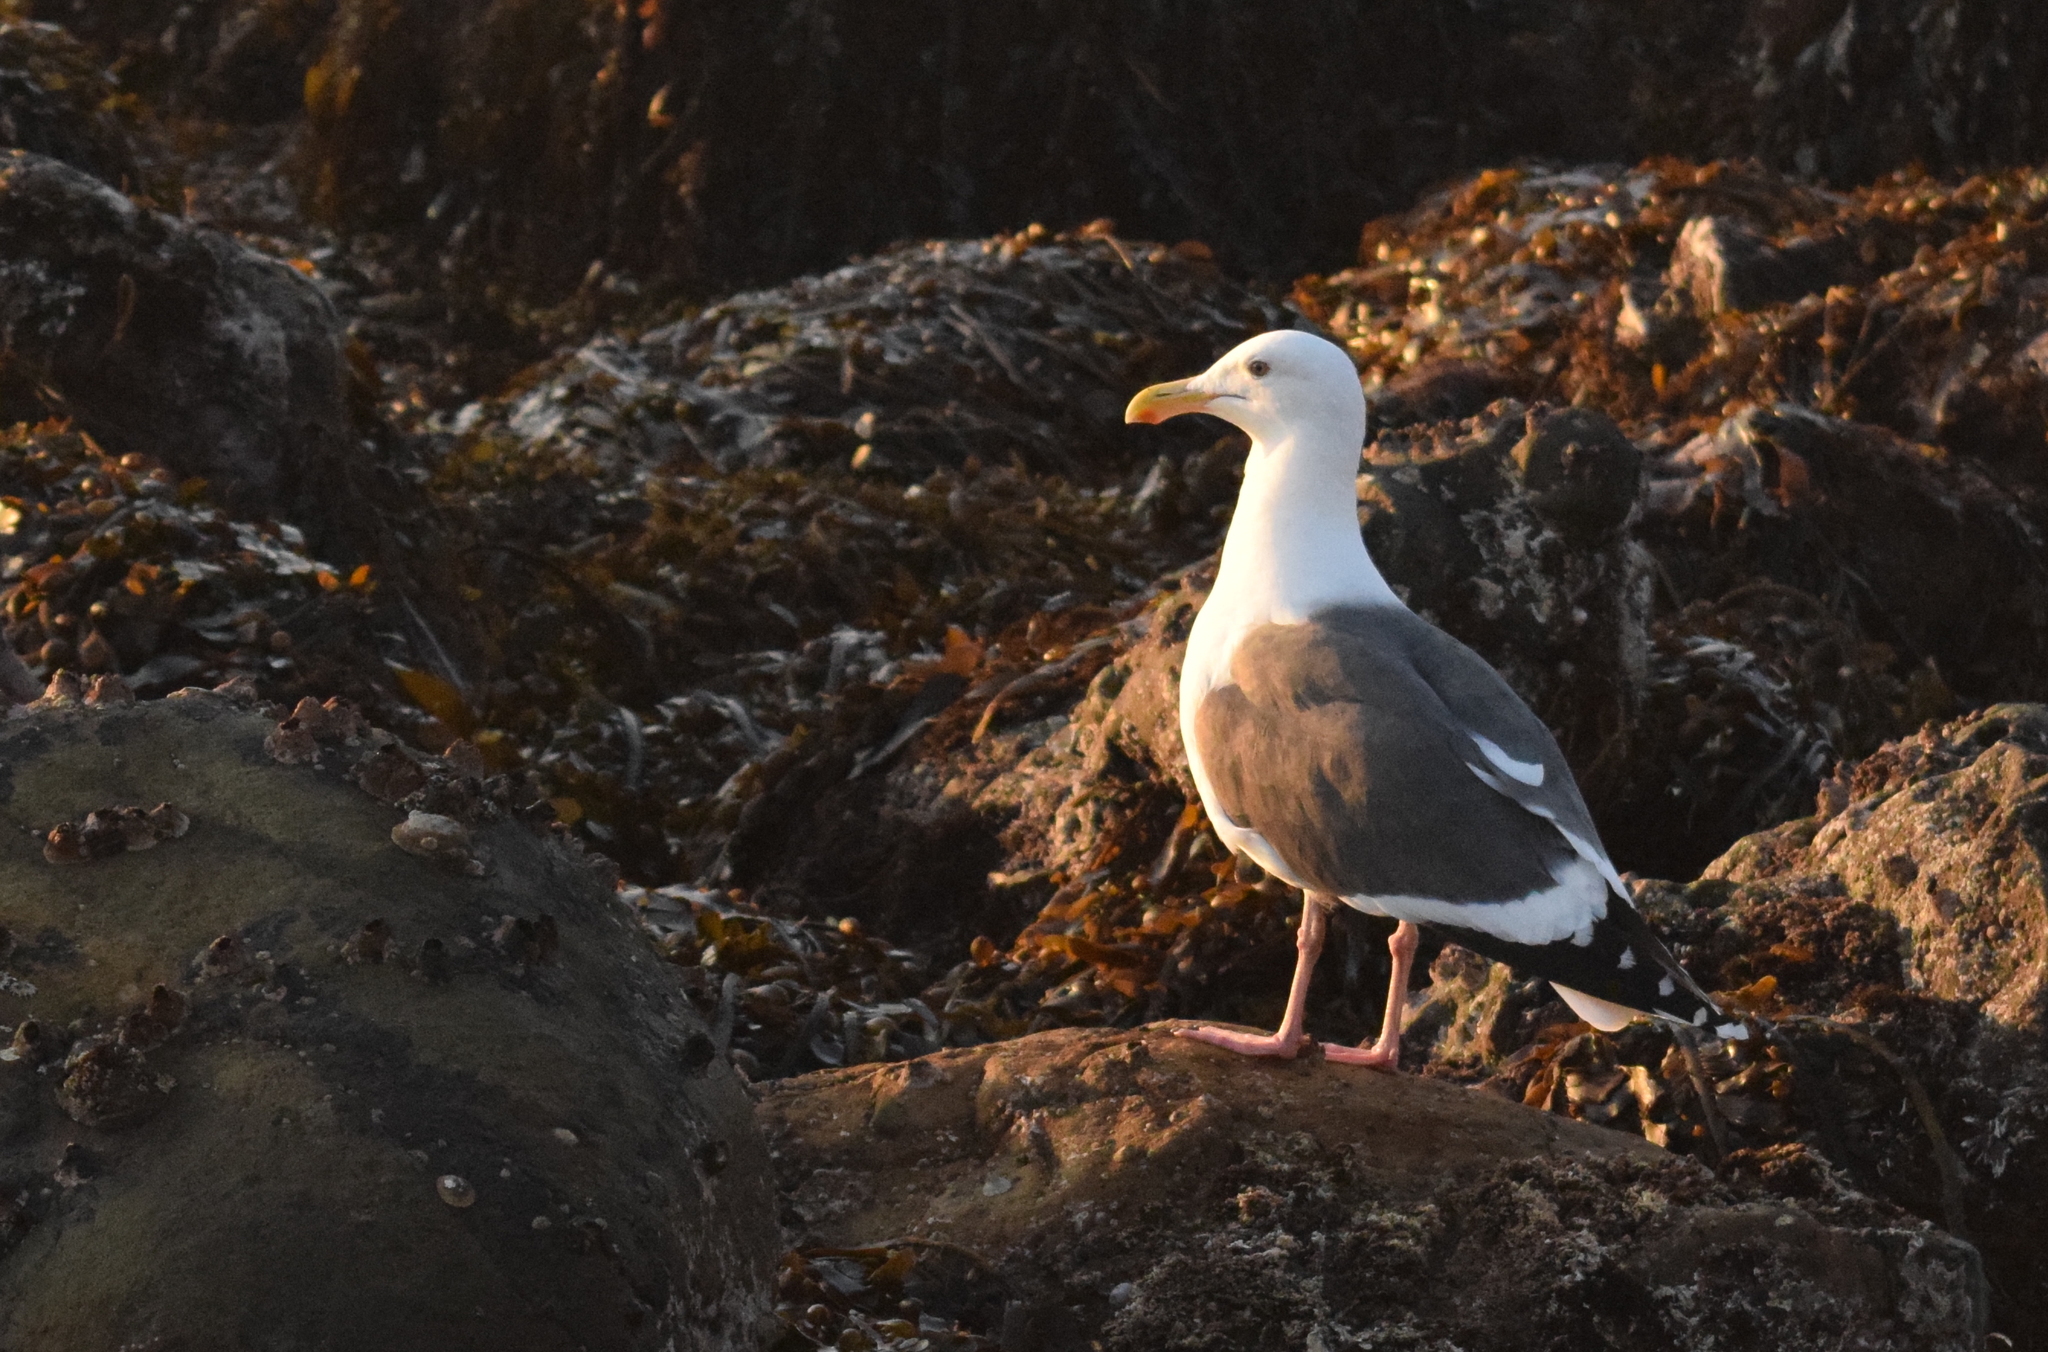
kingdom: Animalia
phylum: Chordata
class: Aves
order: Charadriiformes
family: Laridae
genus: Larus
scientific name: Larus occidentalis
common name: Western gull
